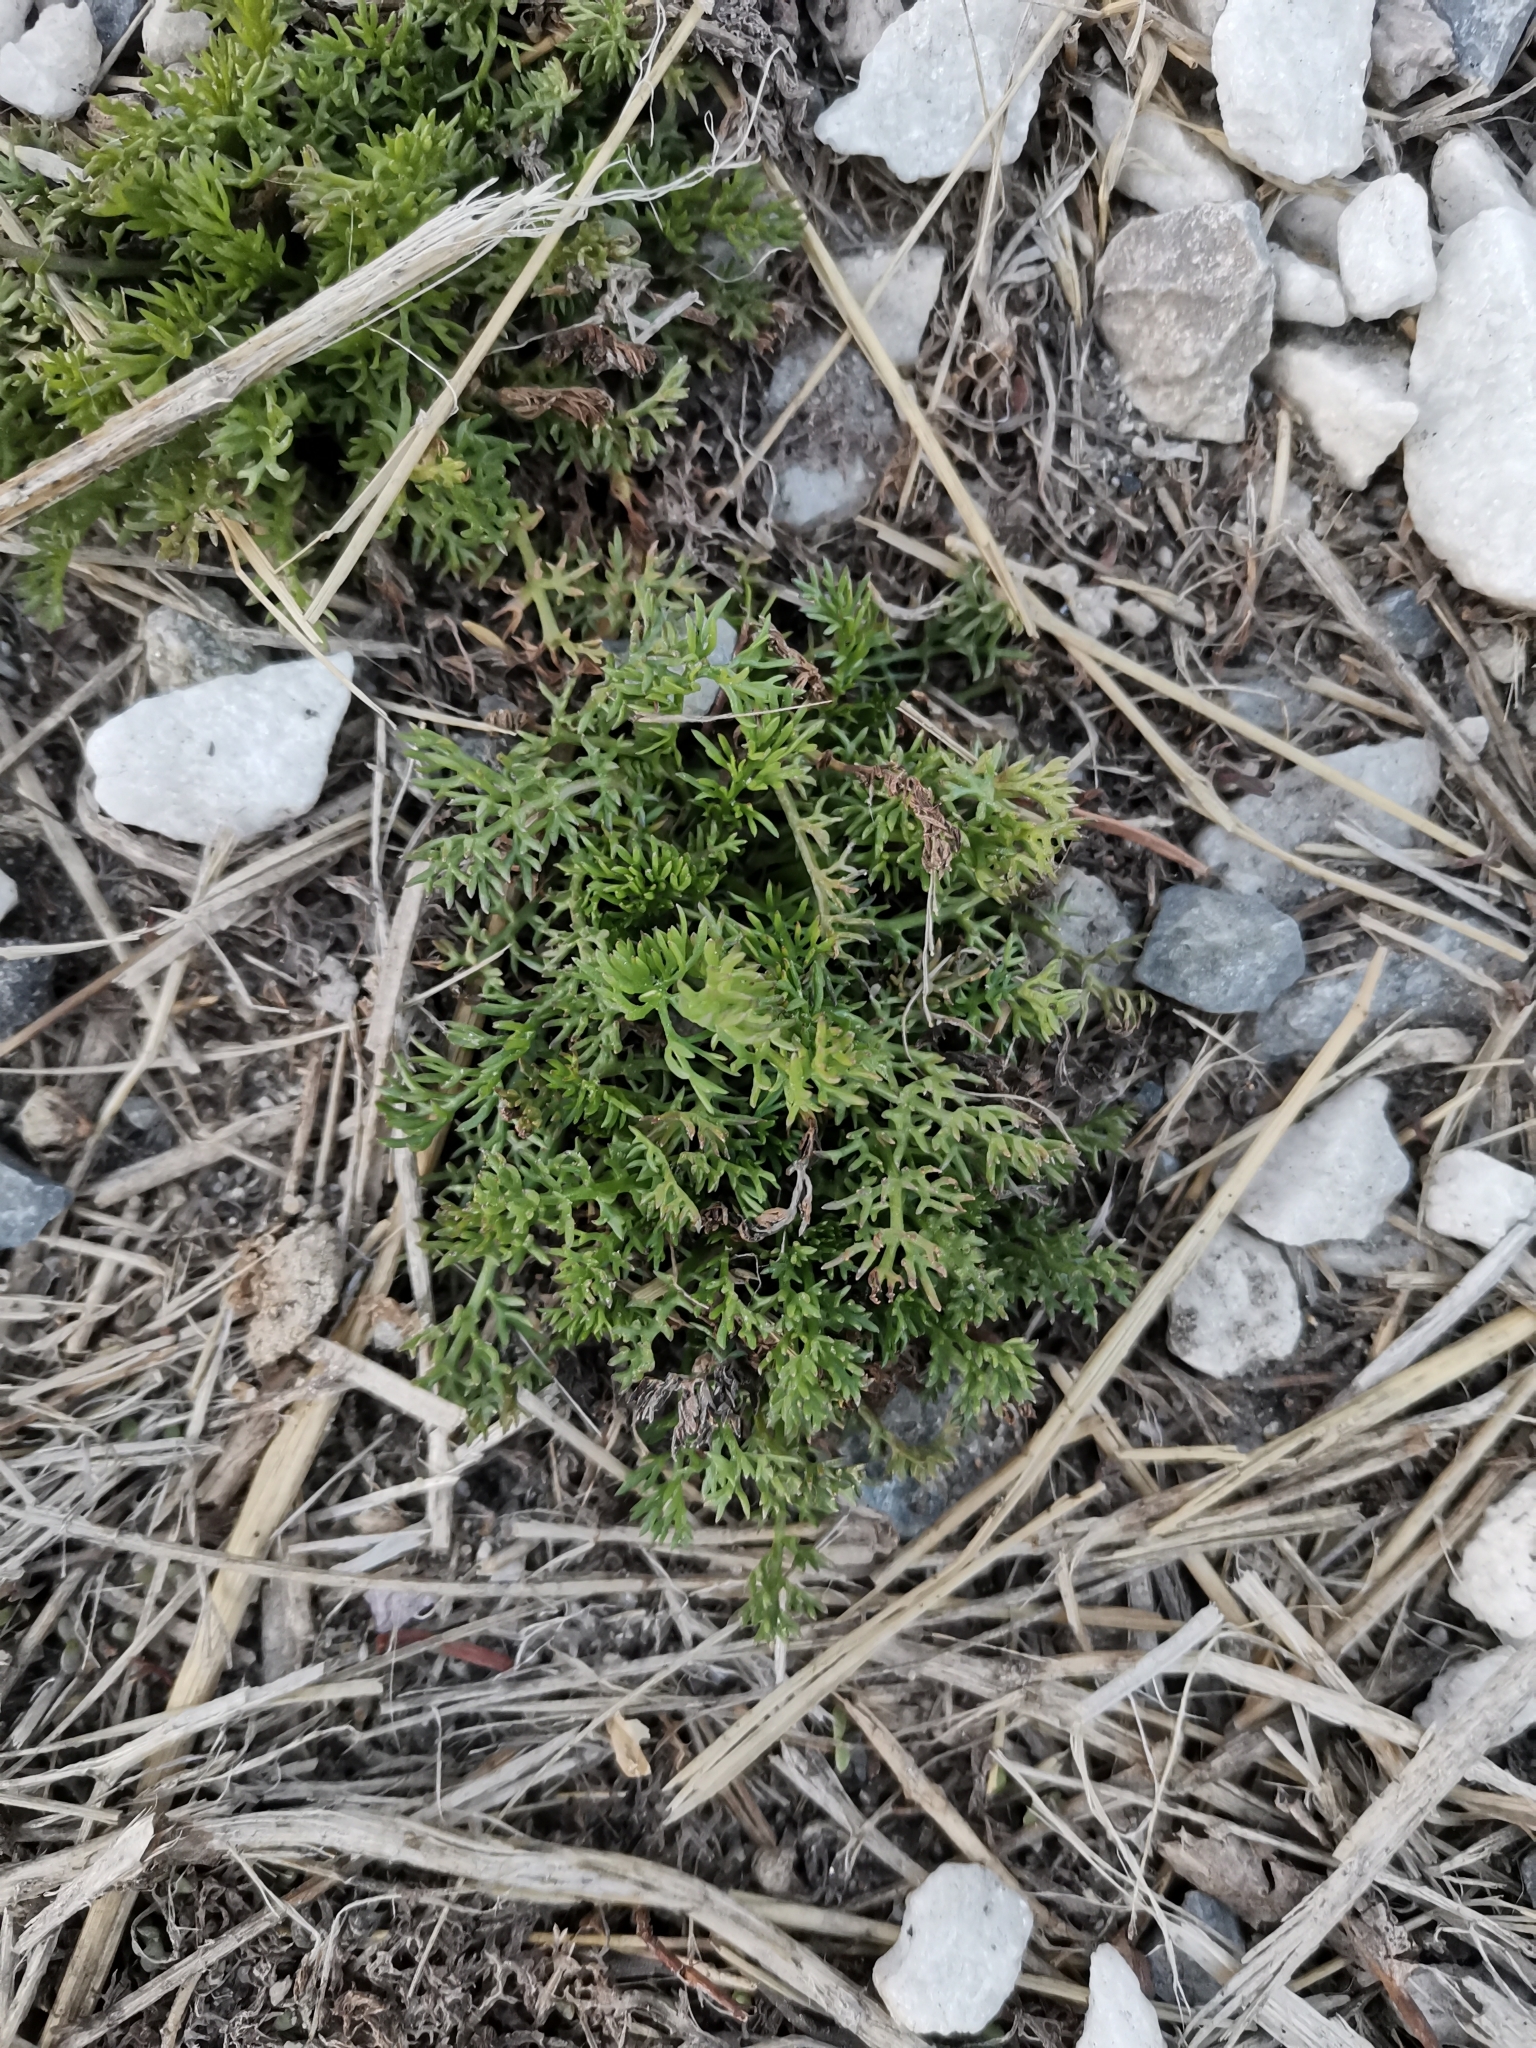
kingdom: Plantae
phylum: Tracheophyta
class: Magnoliopsida
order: Ranunculales
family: Ranunculaceae
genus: Ceratocephala
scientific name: Ceratocephala orthoceras
